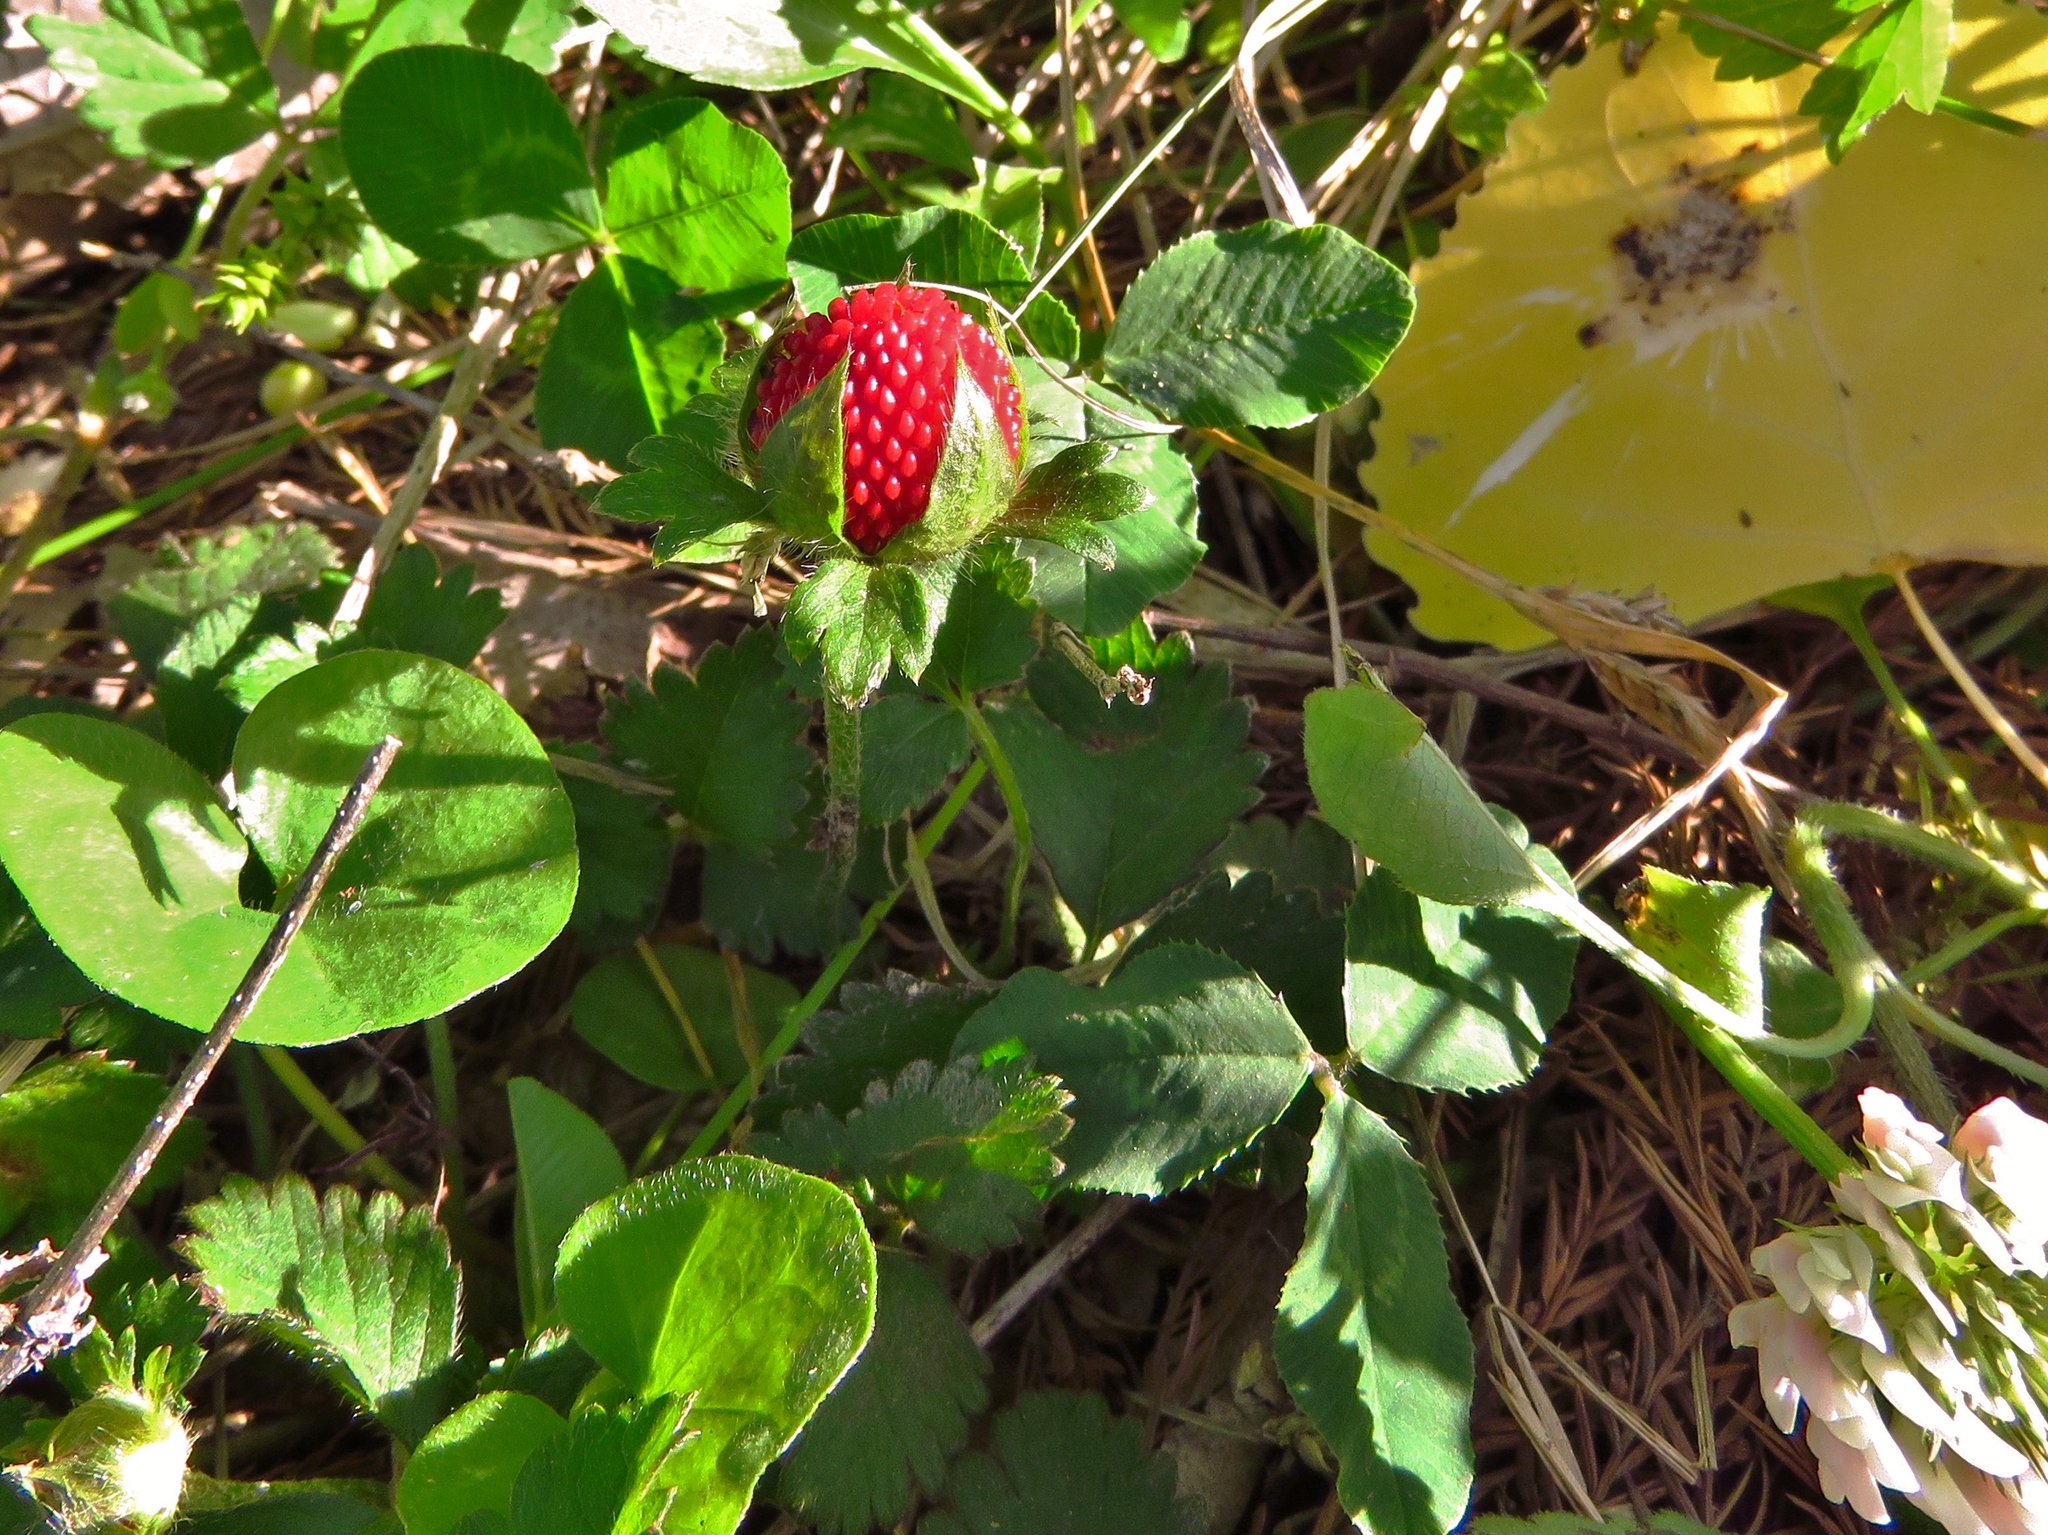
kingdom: Plantae
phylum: Tracheophyta
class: Magnoliopsida
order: Rosales
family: Rosaceae
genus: Potentilla
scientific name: Potentilla indica
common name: Yellow-flowered strawberry
